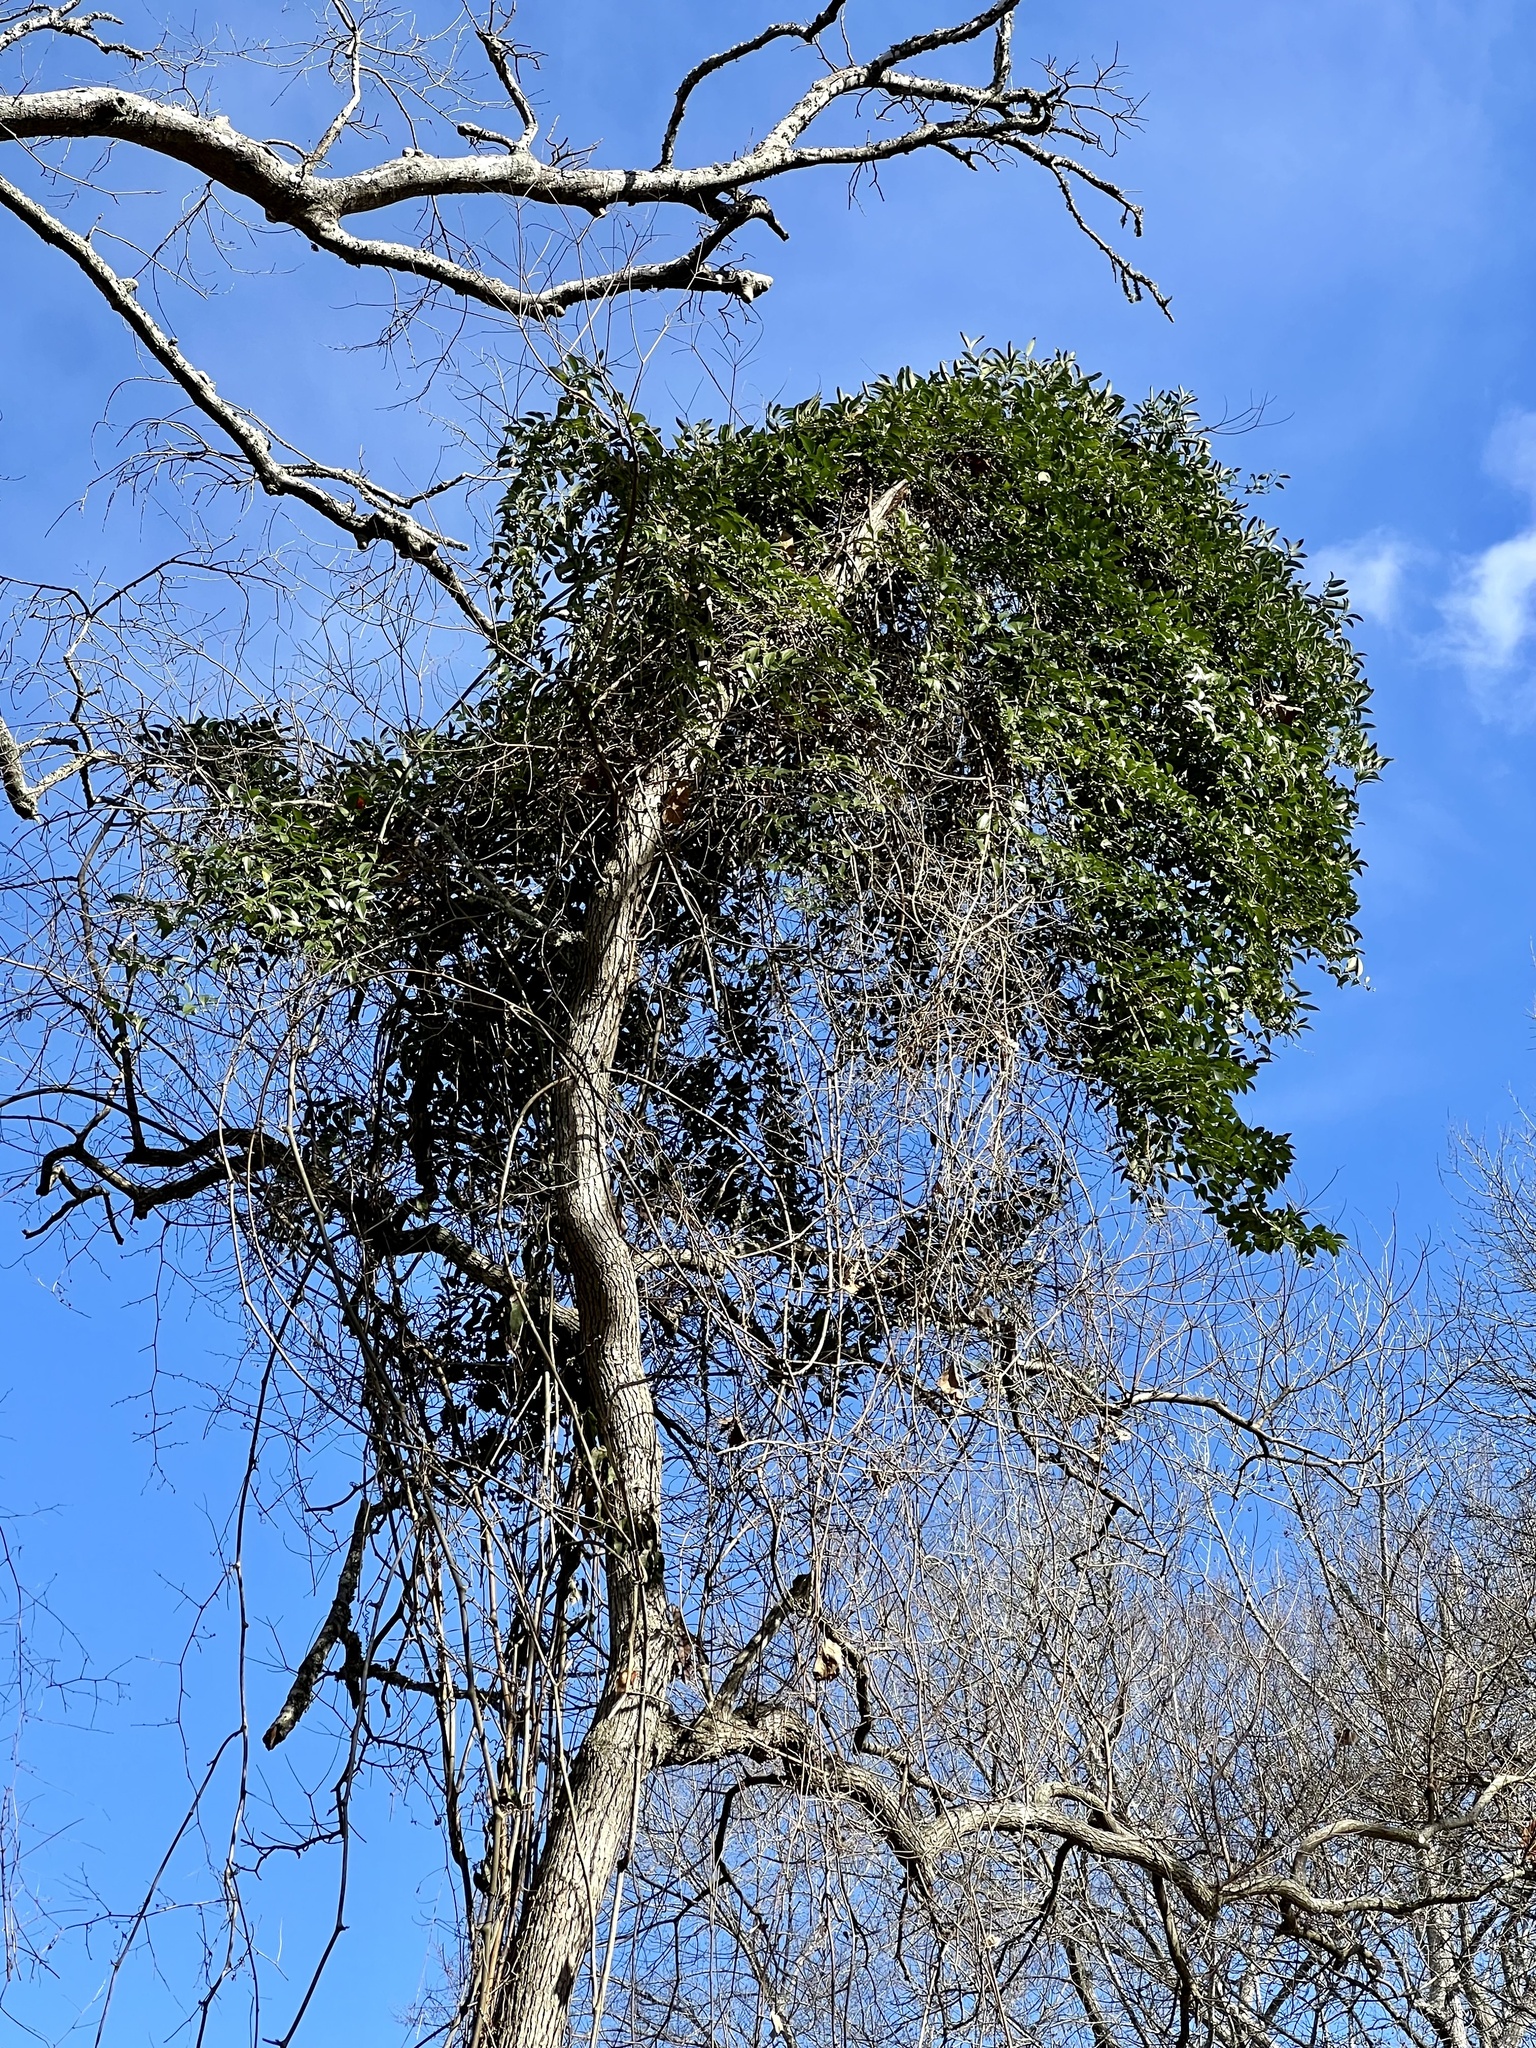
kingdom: Plantae
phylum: Tracheophyta
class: Liliopsida
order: Liliales
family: Smilacaceae
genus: Smilax
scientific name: Smilax maritima
